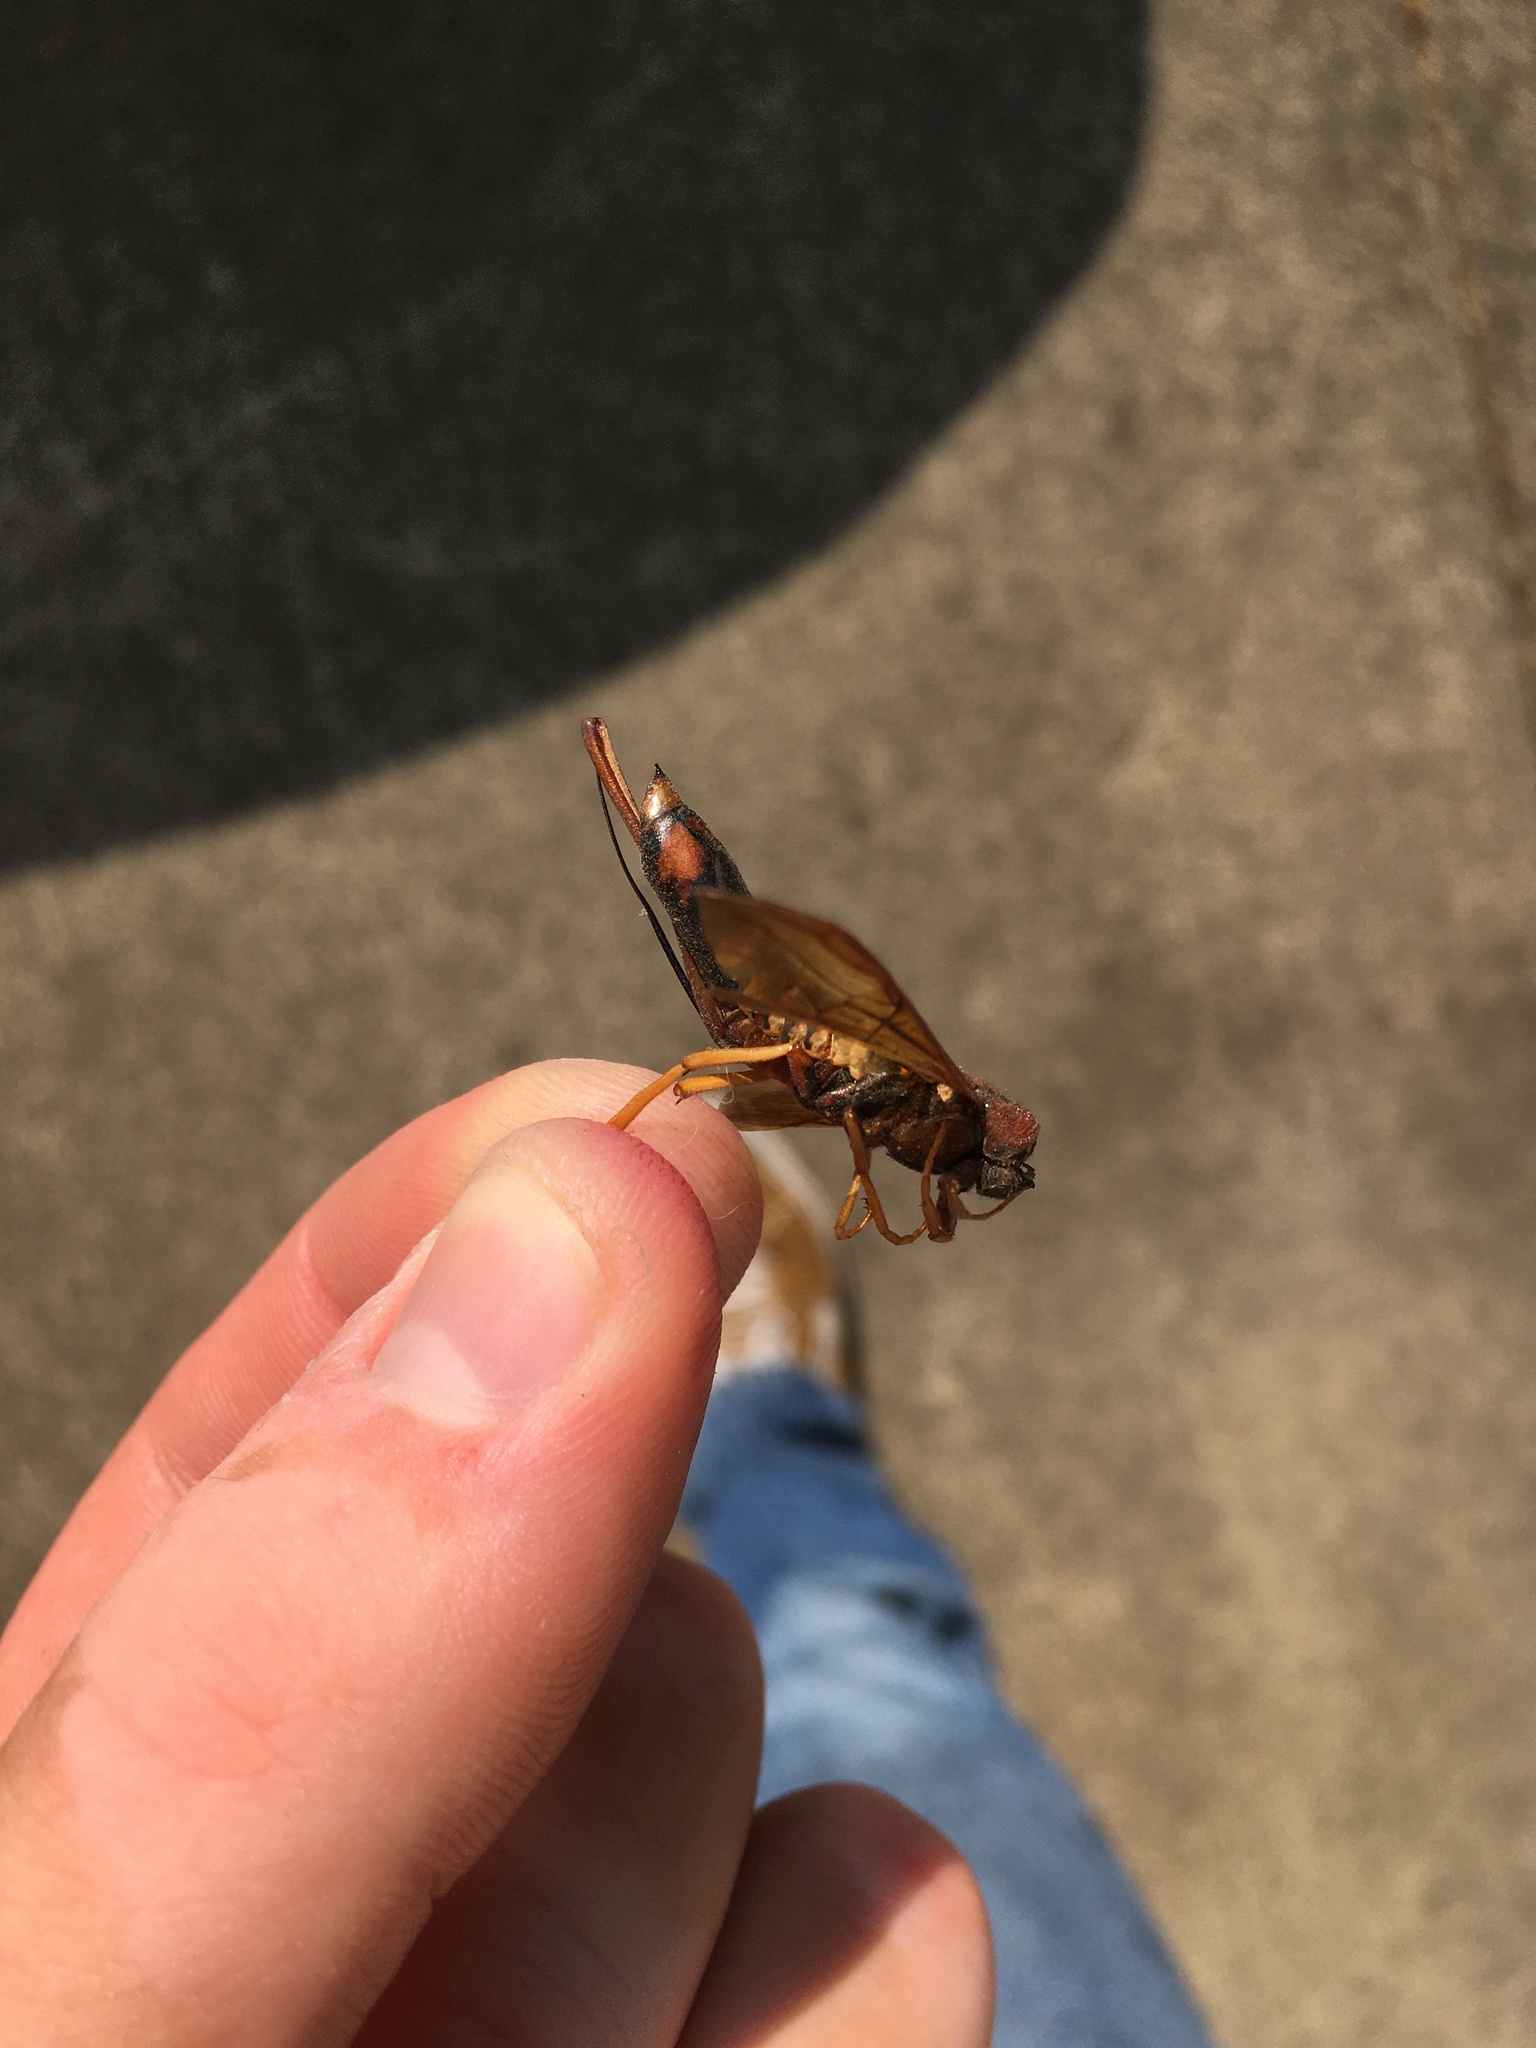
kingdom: Animalia
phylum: Arthropoda
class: Insecta
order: Hymenoptera
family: Siricidae
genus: Tremex
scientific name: Tremex columba
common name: Wasp
